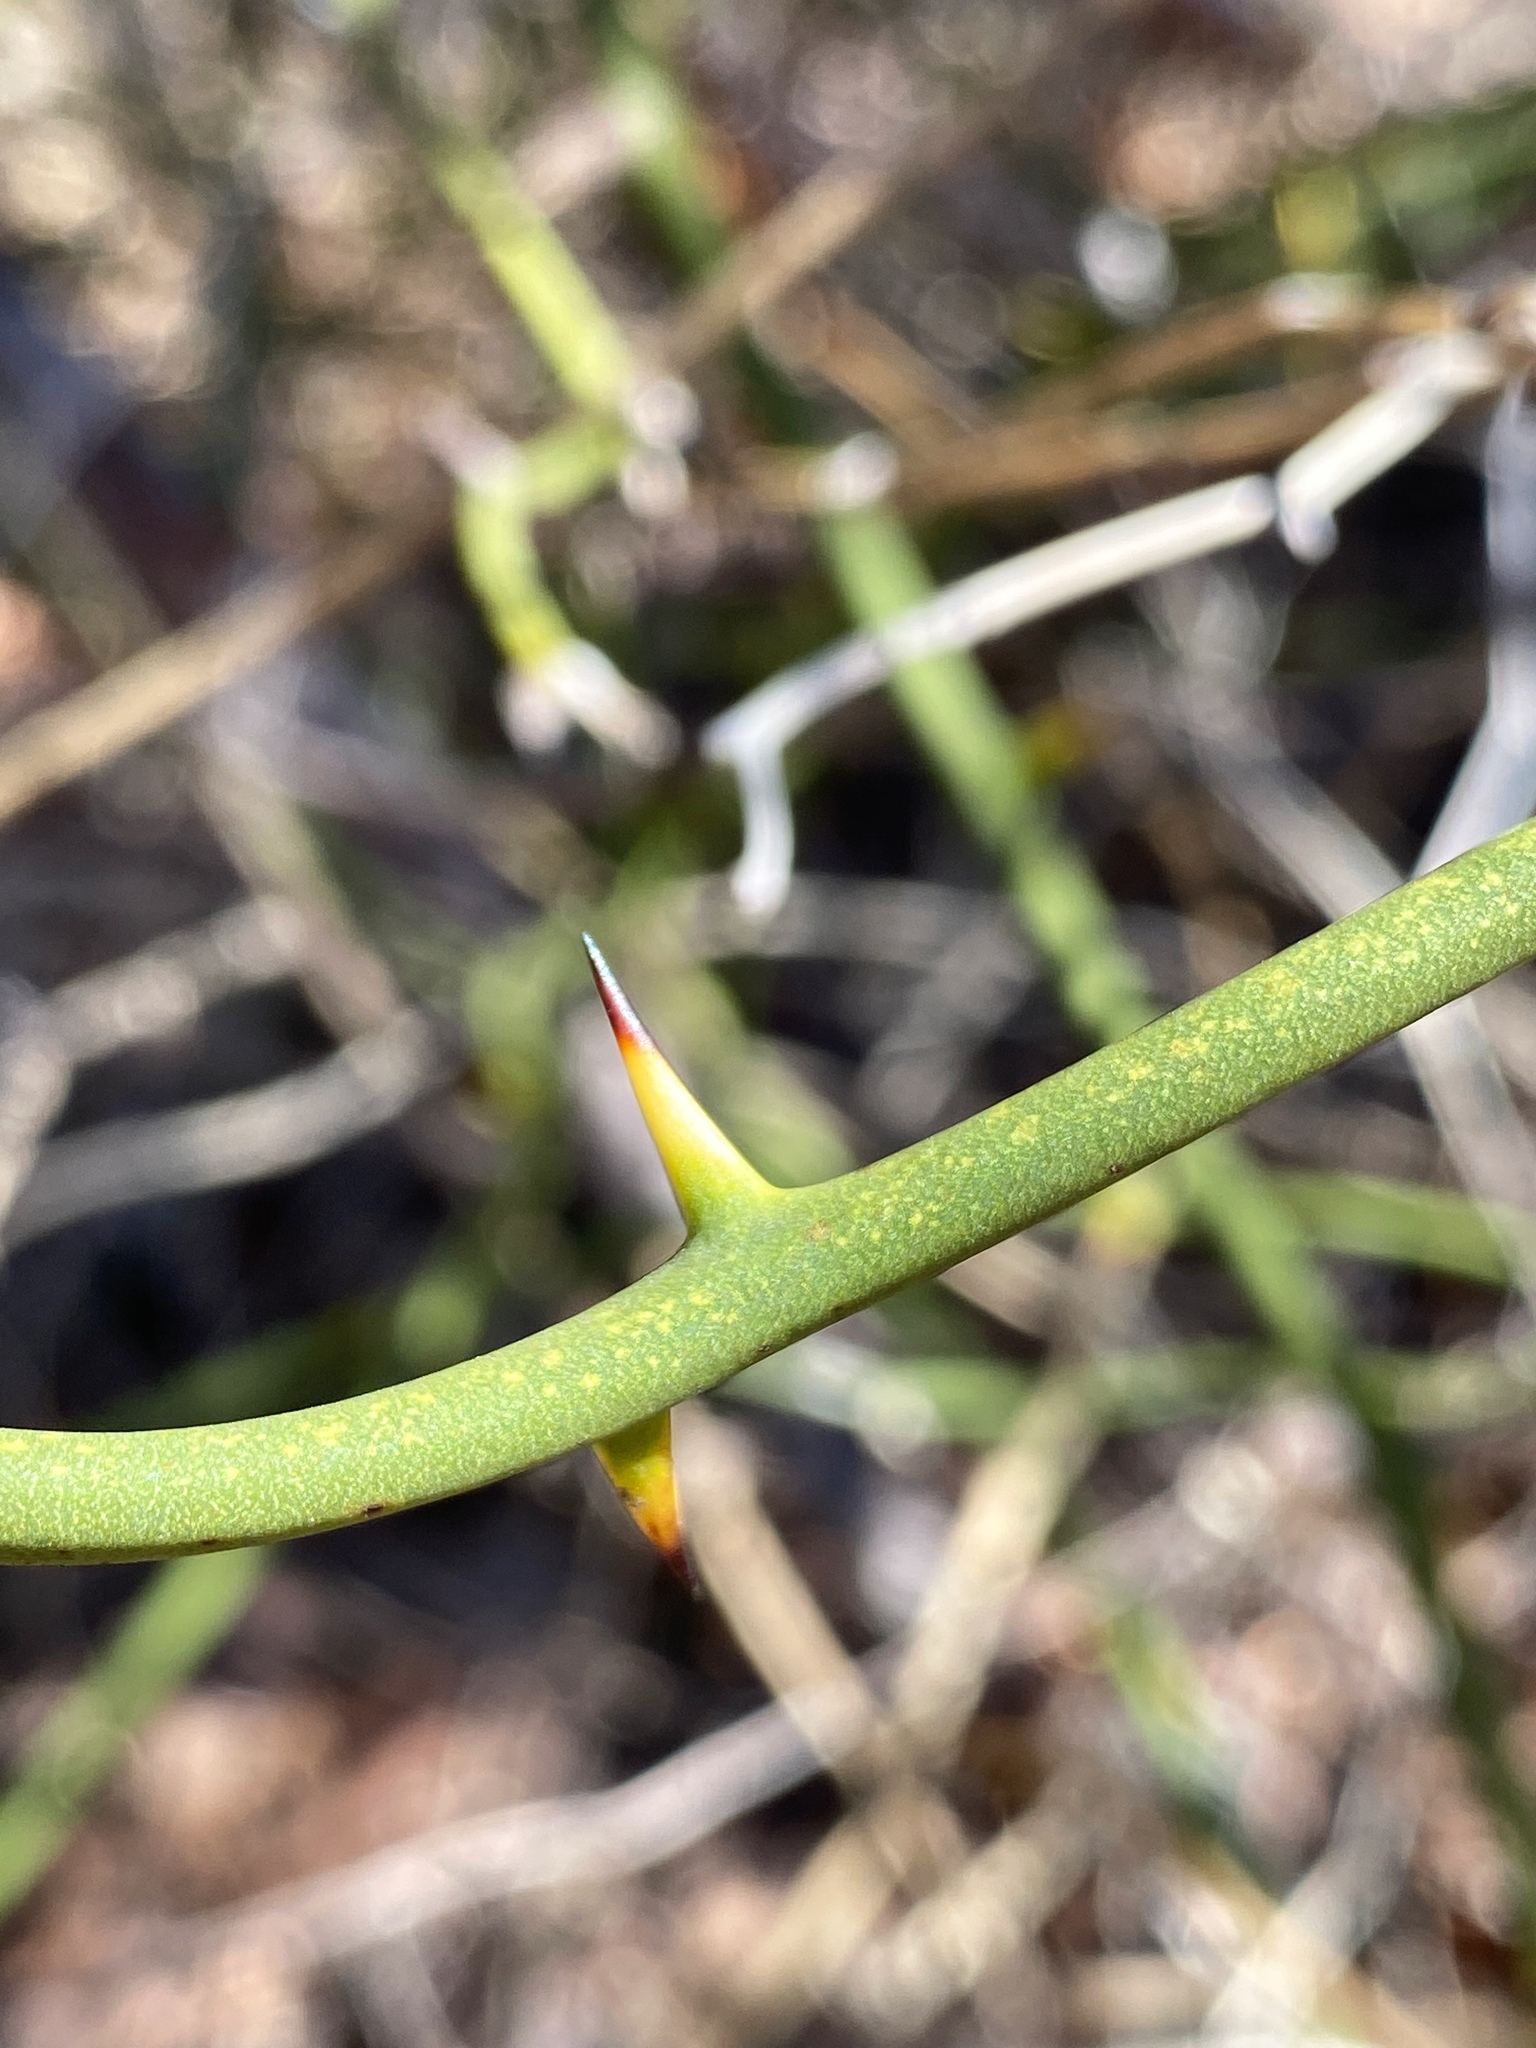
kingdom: Plantae
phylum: Tracheophyta
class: Liliopsida
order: Liliales
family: Smilacaceae
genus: Smilax
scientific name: Smilax rotundifolia
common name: Bullbriar
